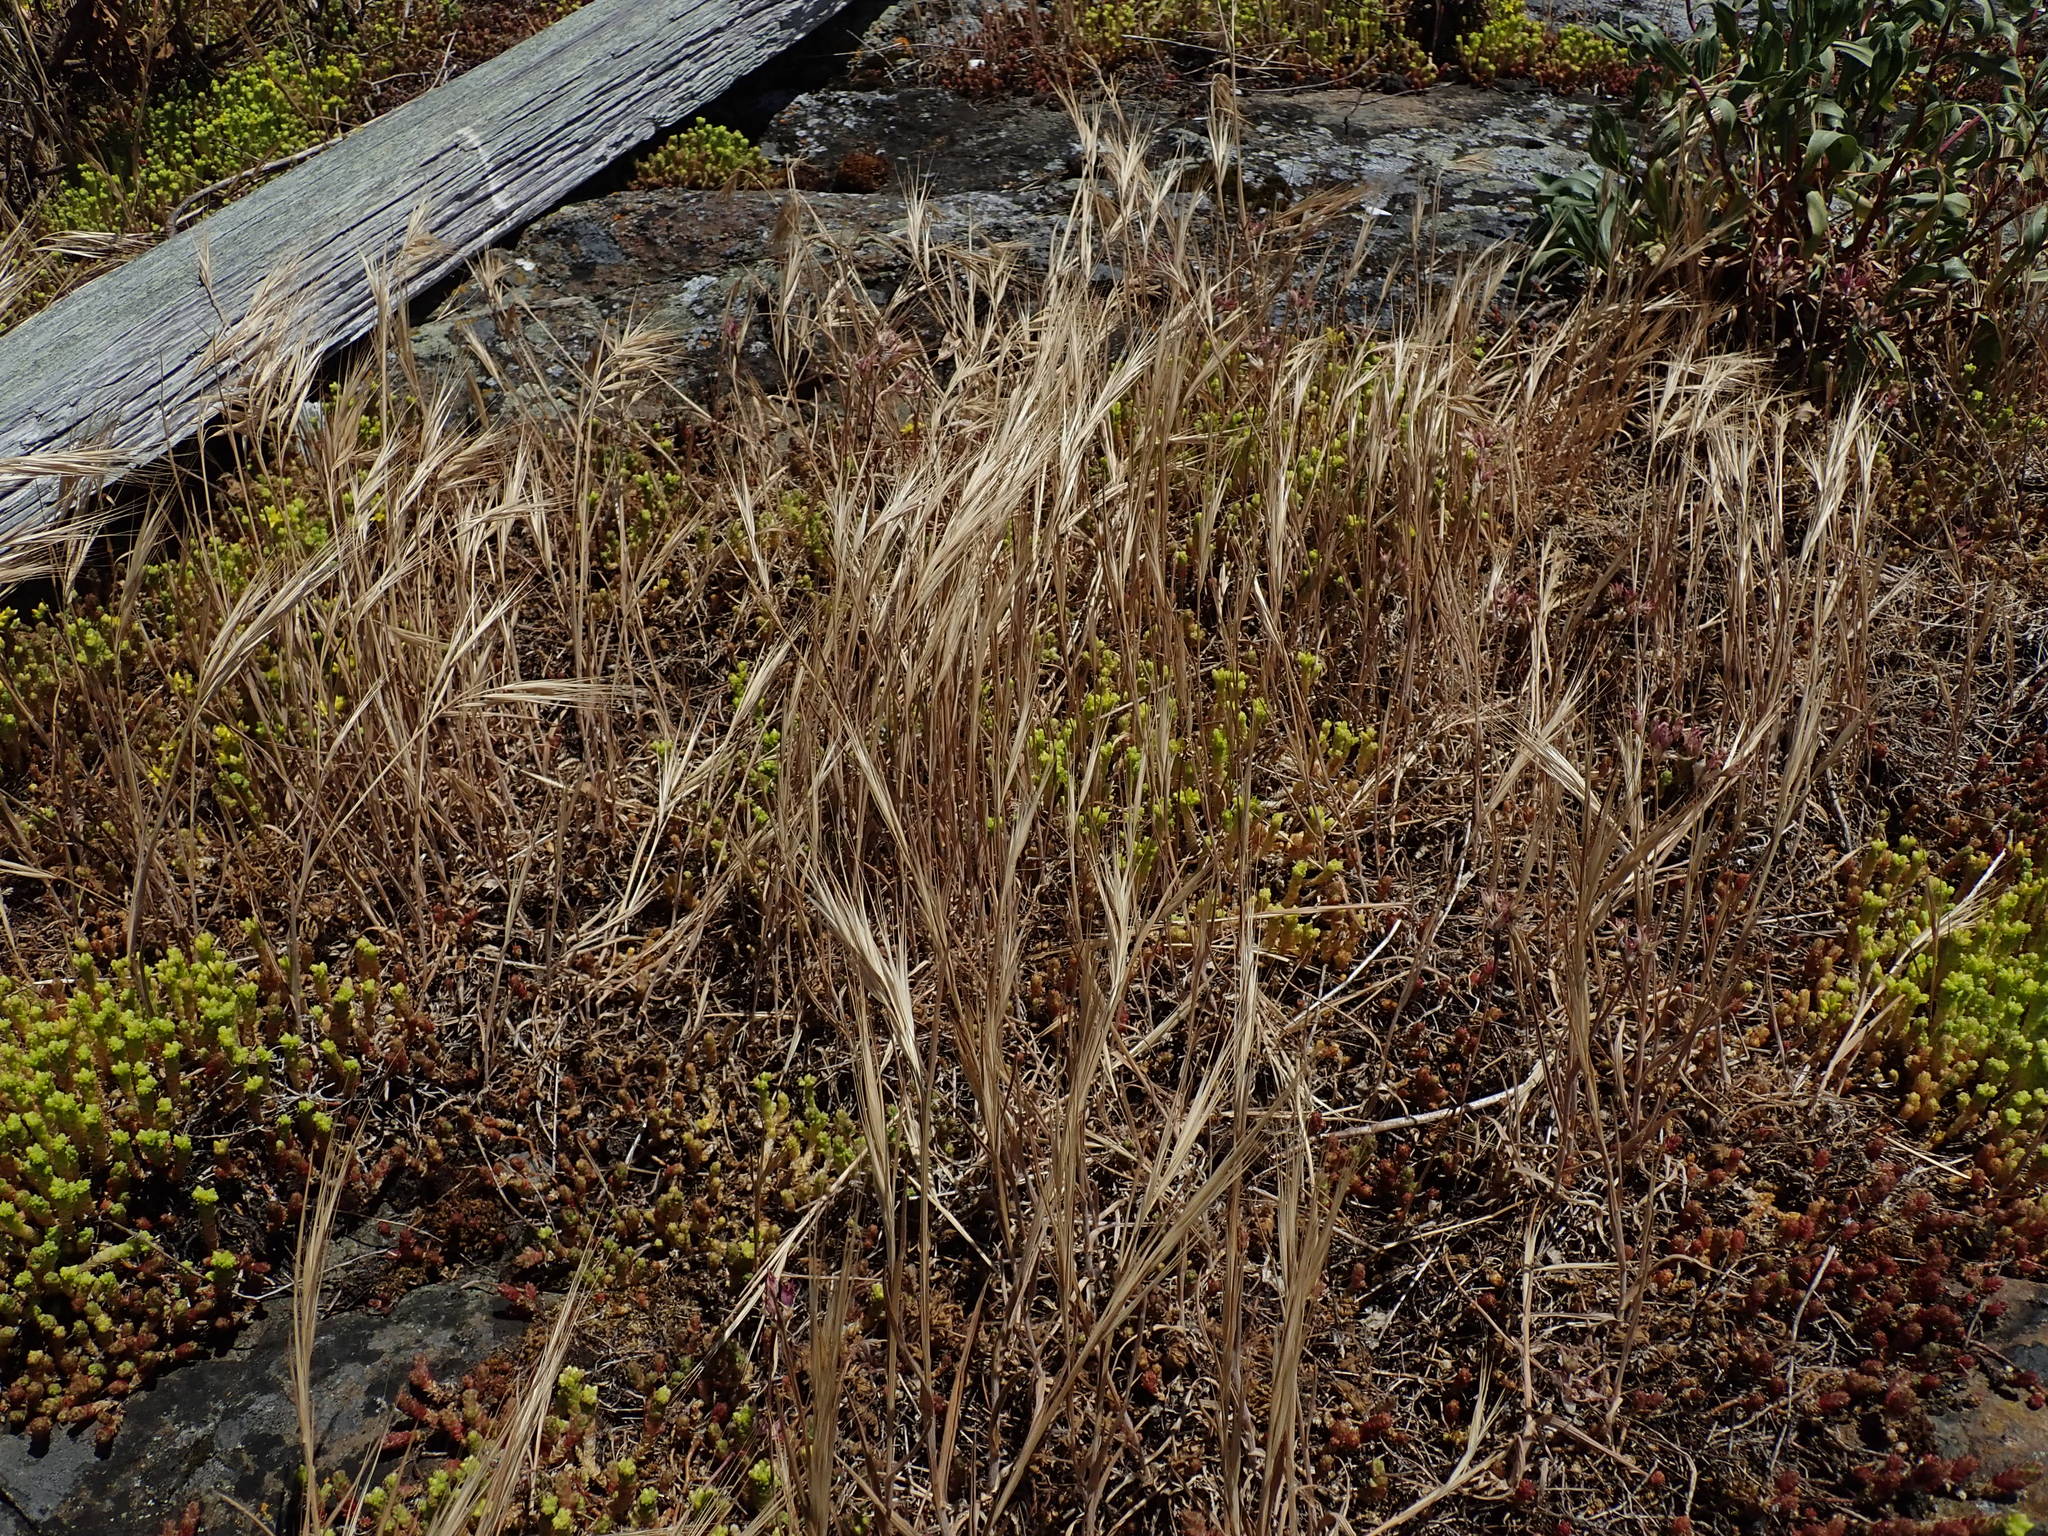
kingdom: Plantae
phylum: Tracheophyta
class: Liliopsida
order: Poales
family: Poaceae
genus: Bromus
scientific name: Bromus tectorum
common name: Cheatgrass
